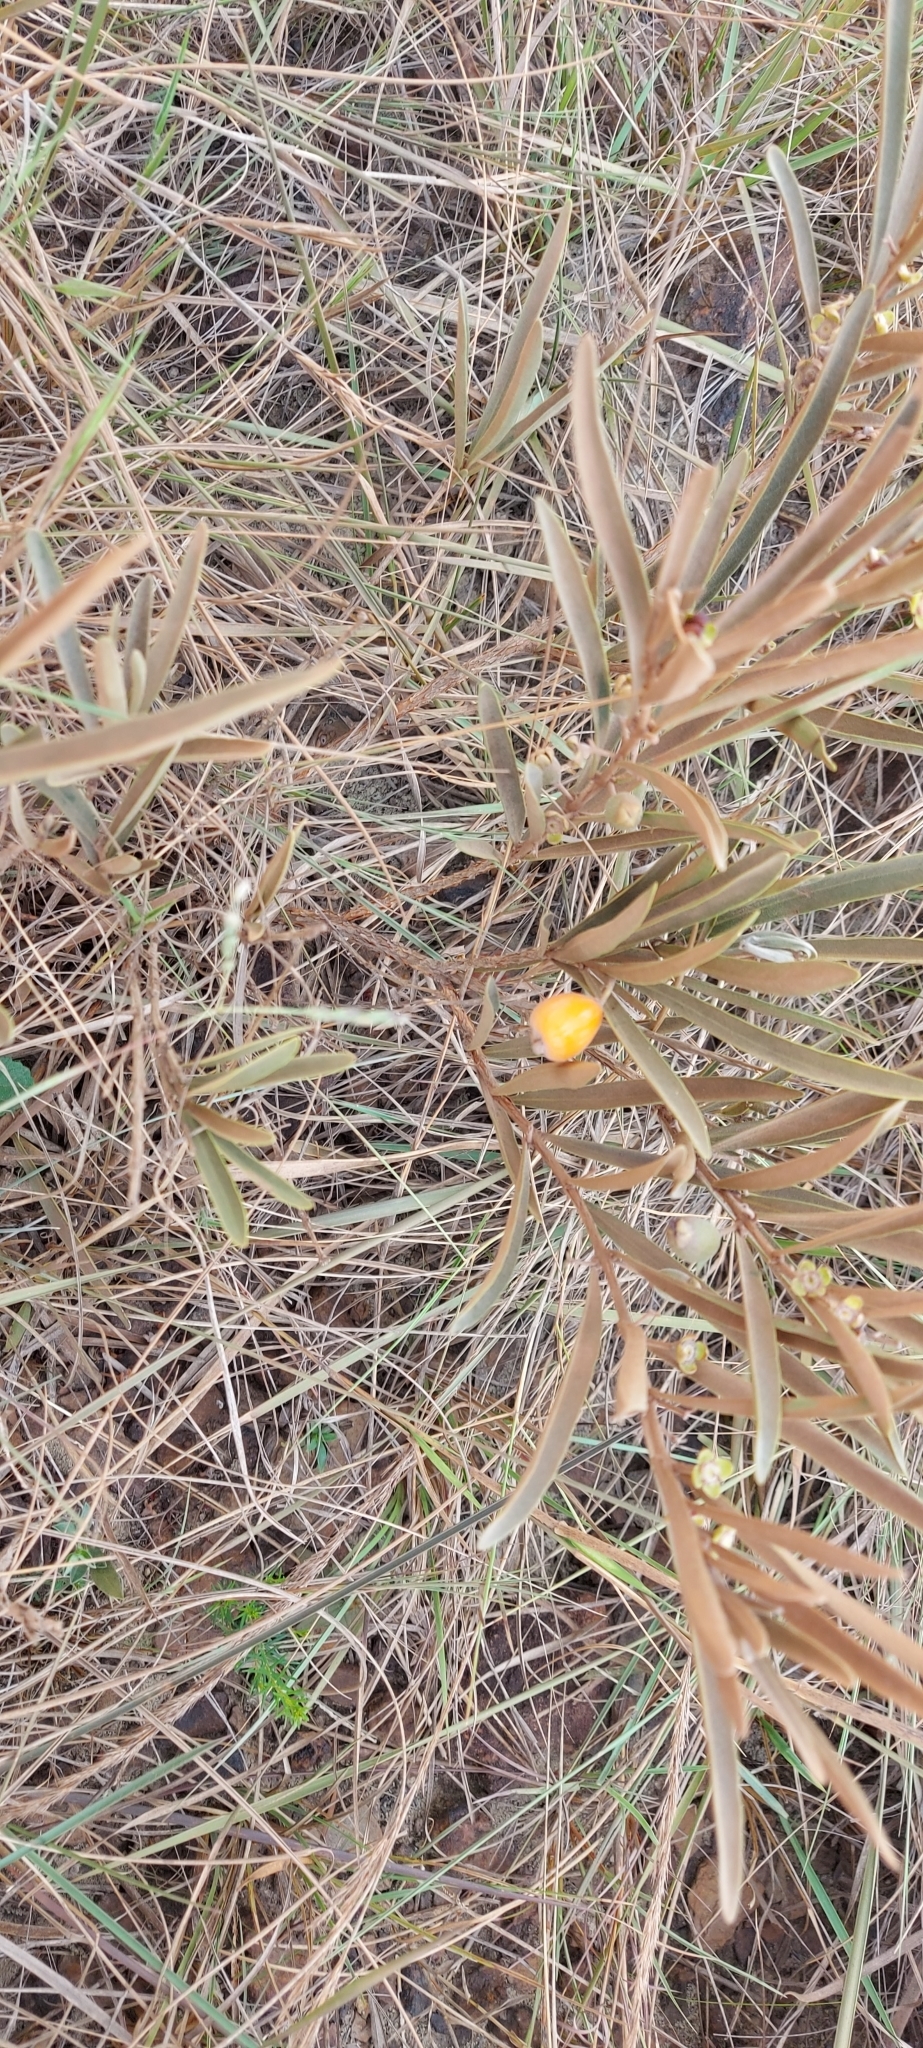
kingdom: Plantae
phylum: Tracheophyta
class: Magnoliopsida
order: Myrtales
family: Myrtaceae
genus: Eugenia
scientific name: Eugenia langsdorffii
